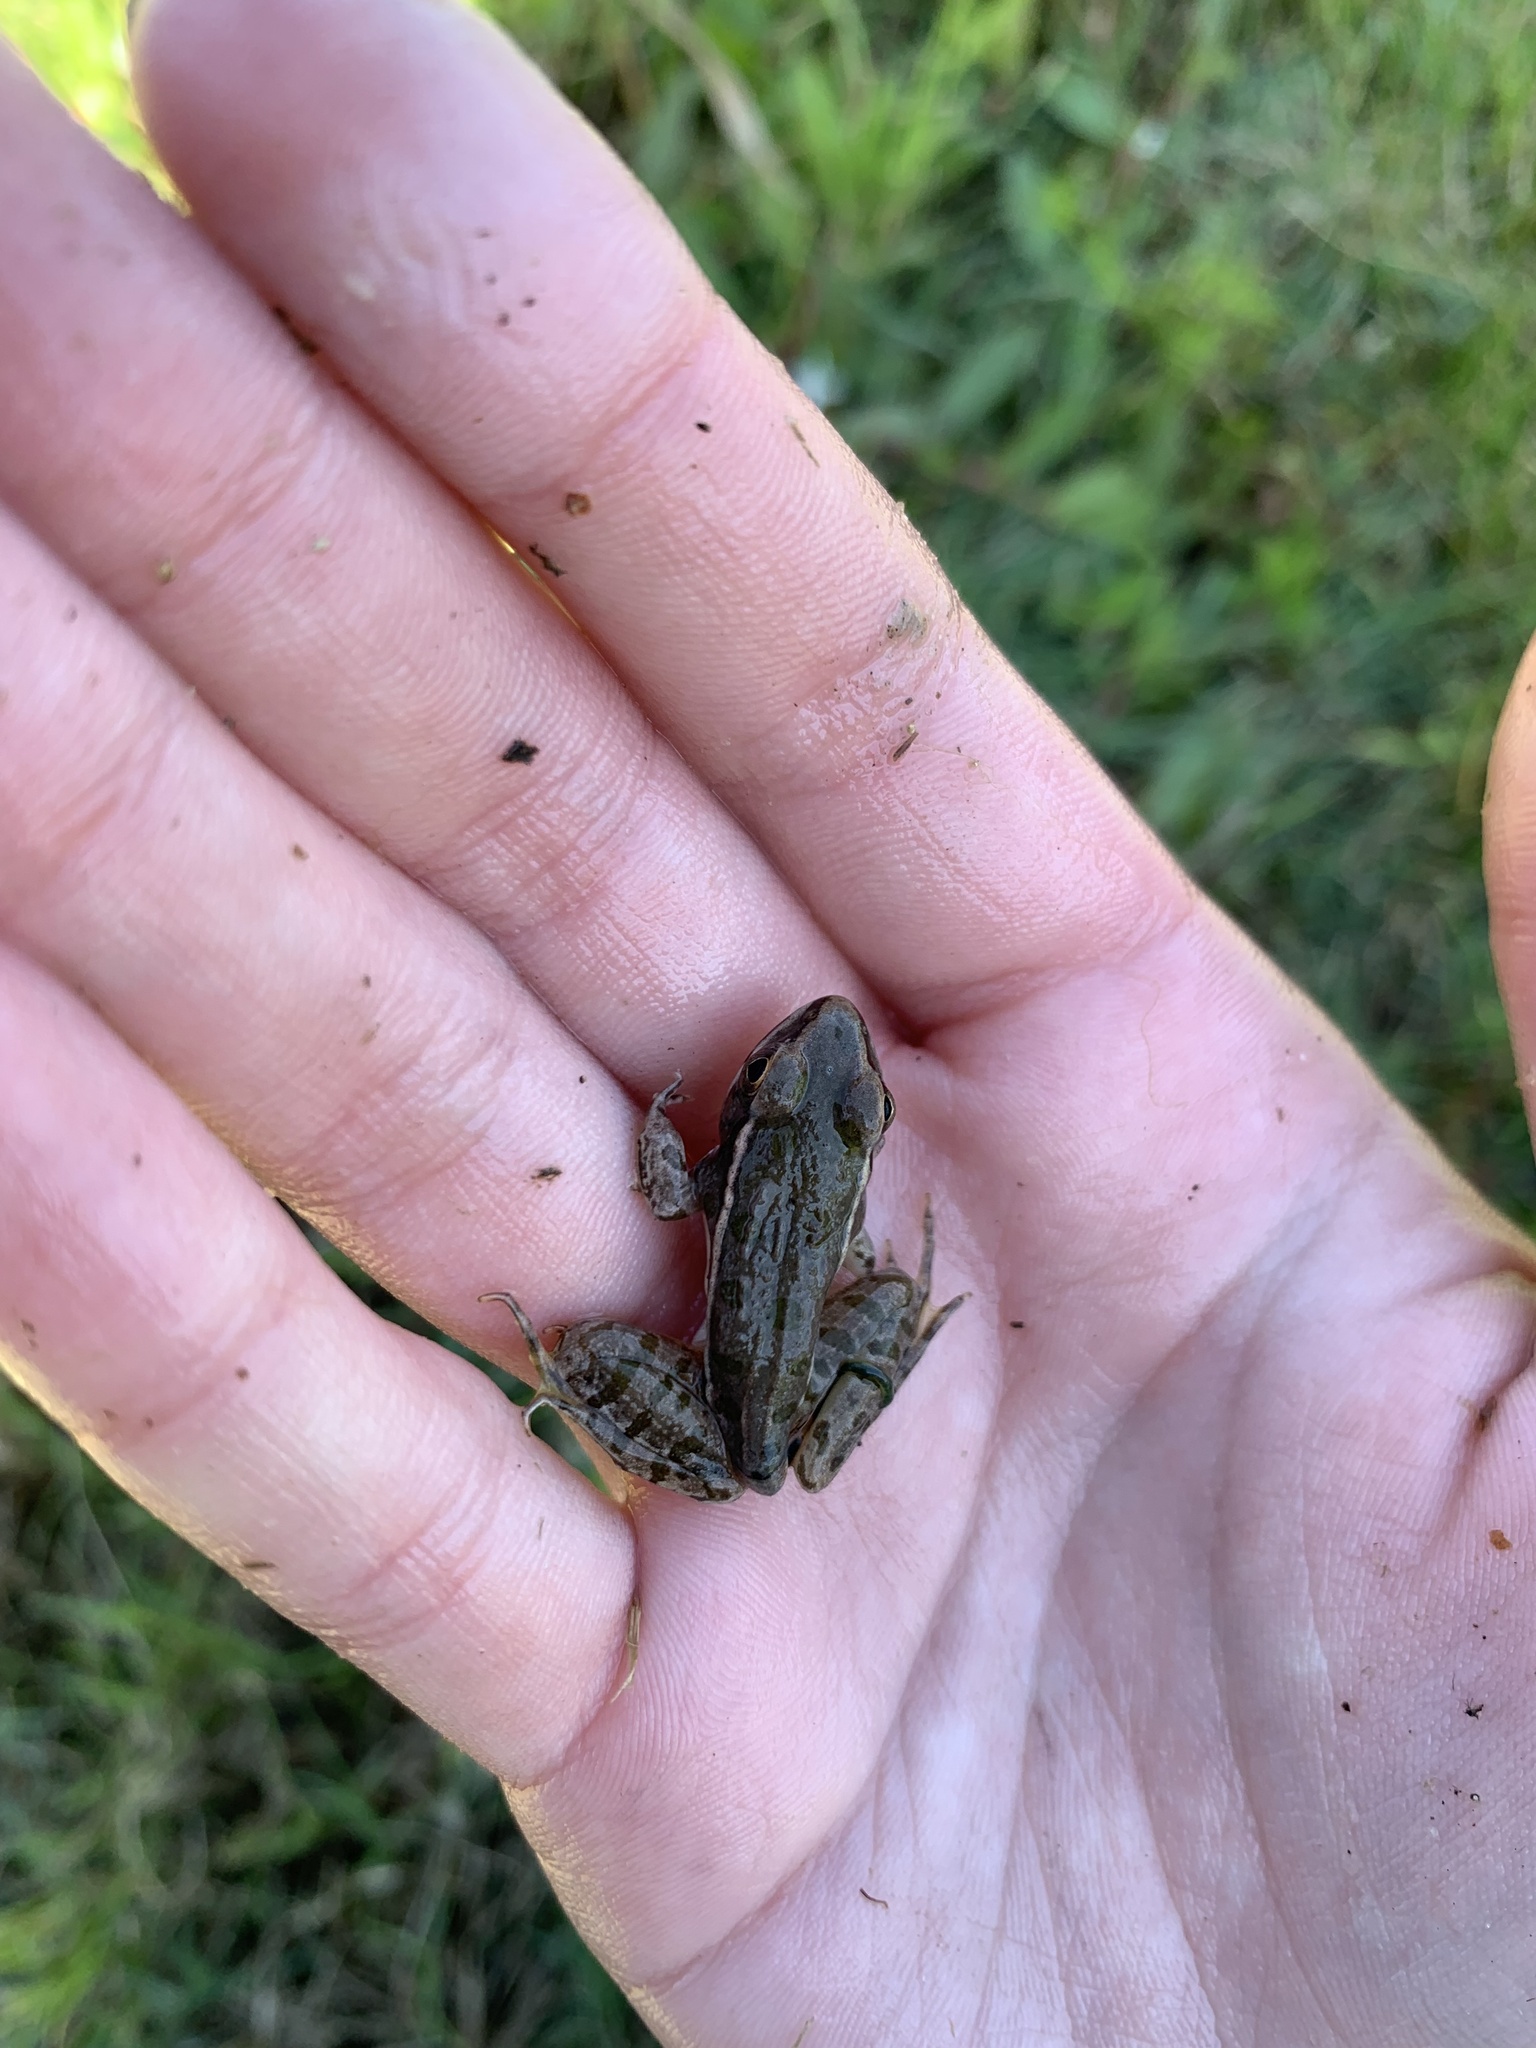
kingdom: Animalia
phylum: Chordata
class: Amphibia
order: Anura
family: Ranidae
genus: Lithobates
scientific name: Lithobates sphenocephalus
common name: Southern leopard frog
